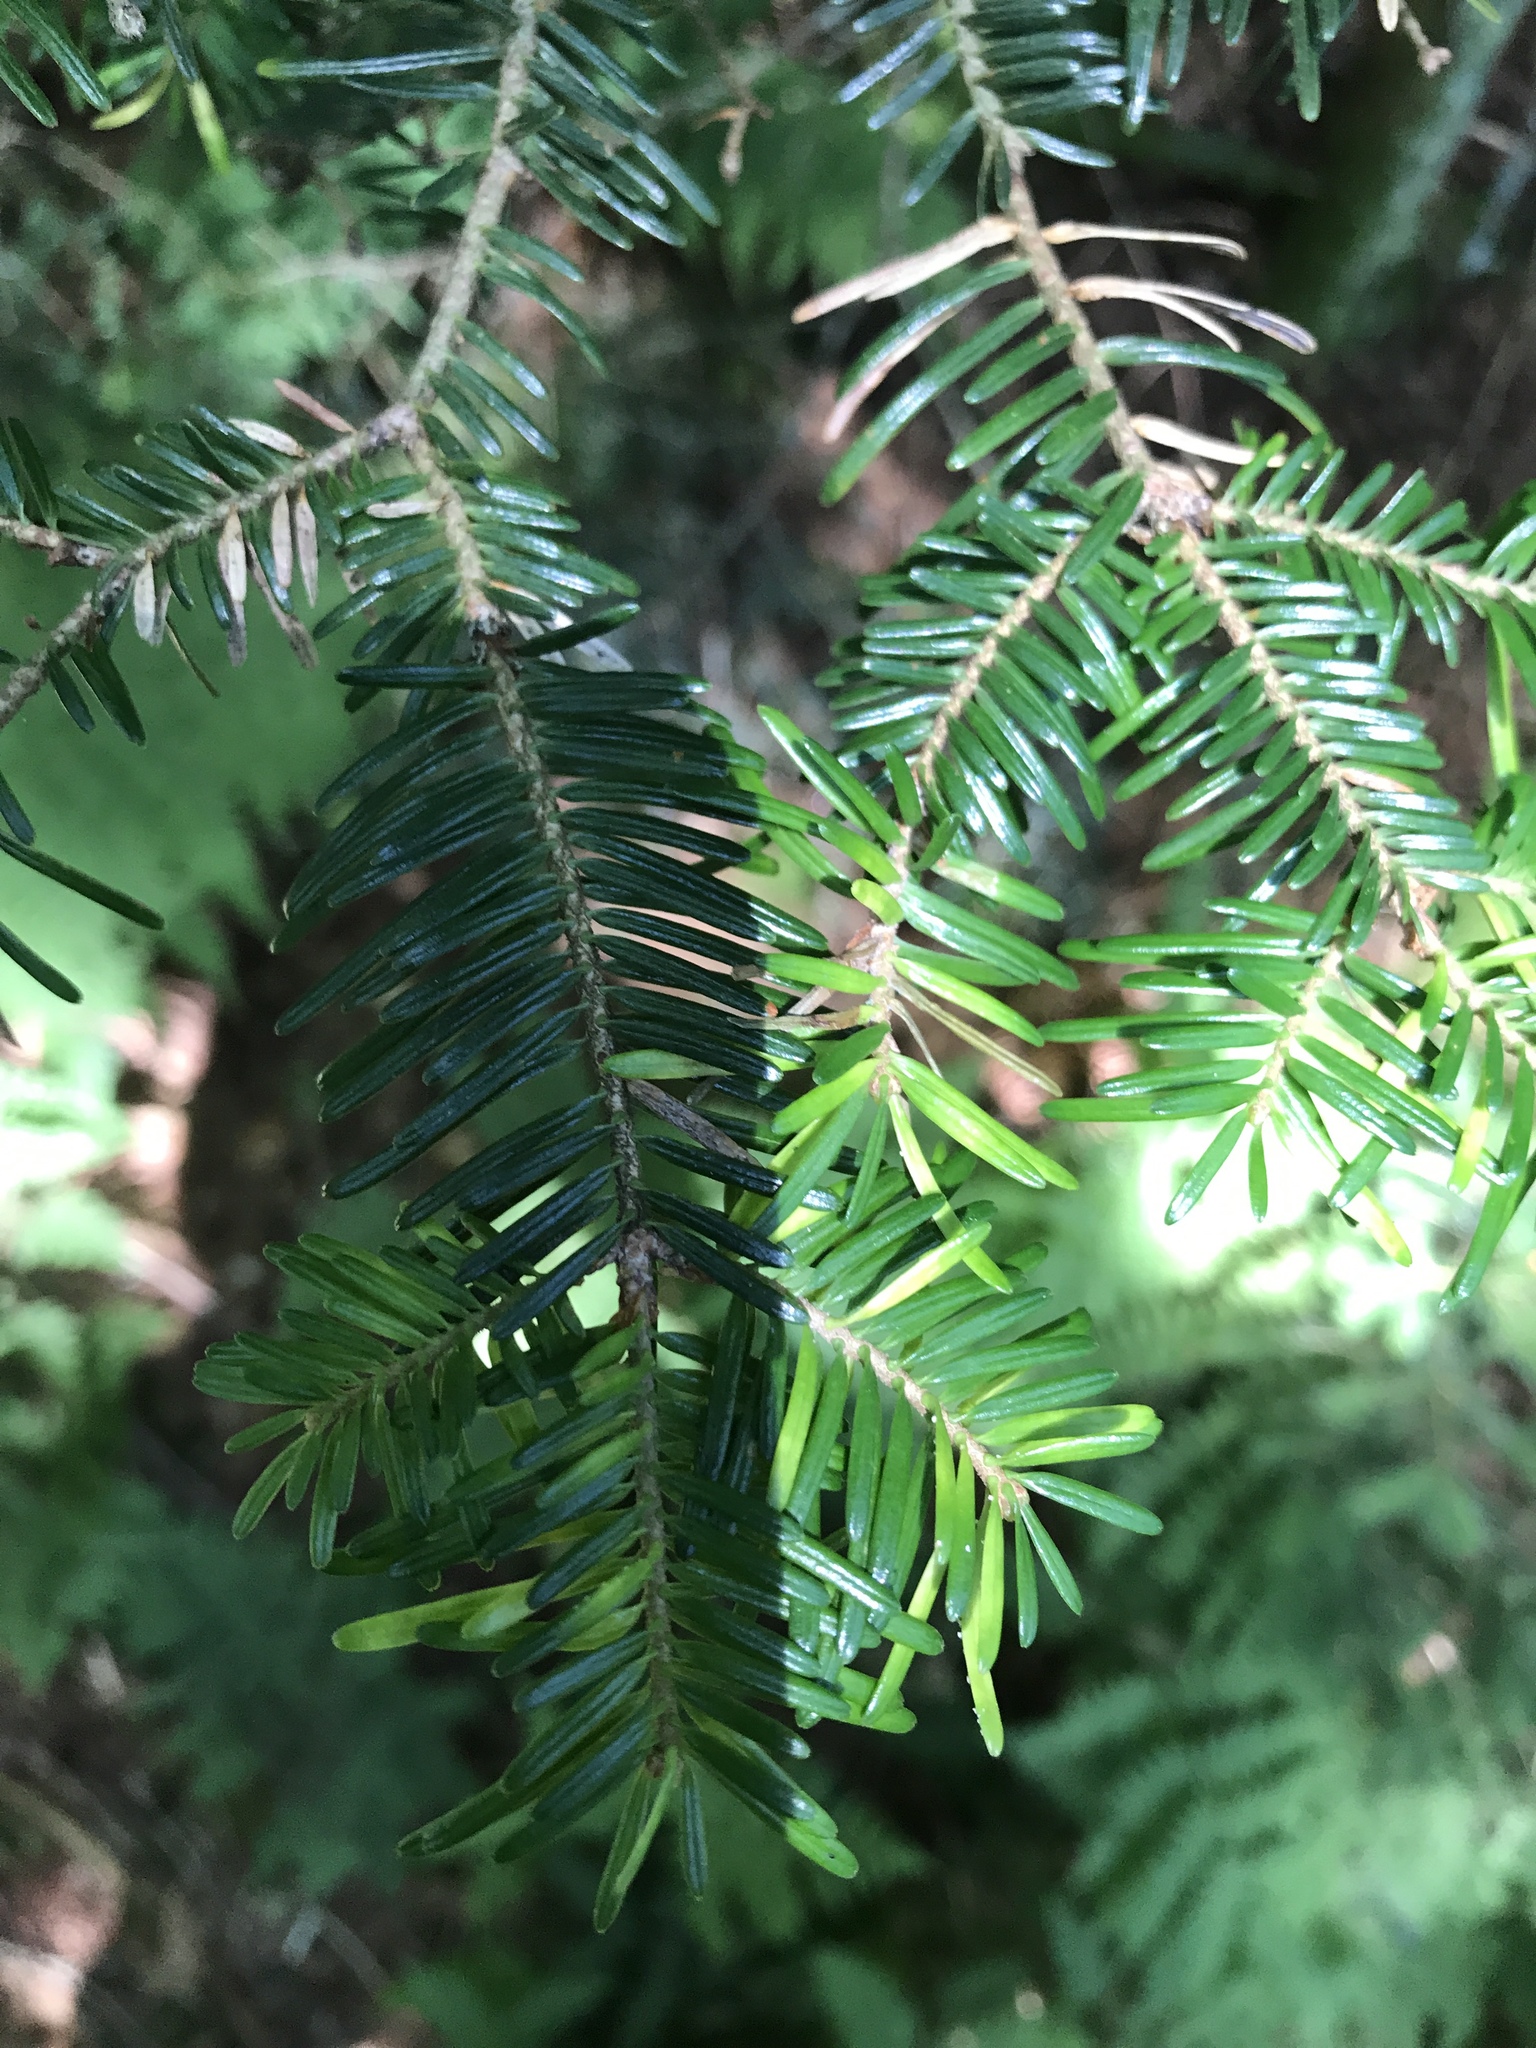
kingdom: Plantae
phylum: Tracheophyta
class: Pinopsida
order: Pinales
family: Pinaceae
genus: Abies
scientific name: Abies fraseri
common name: Fraser fir
